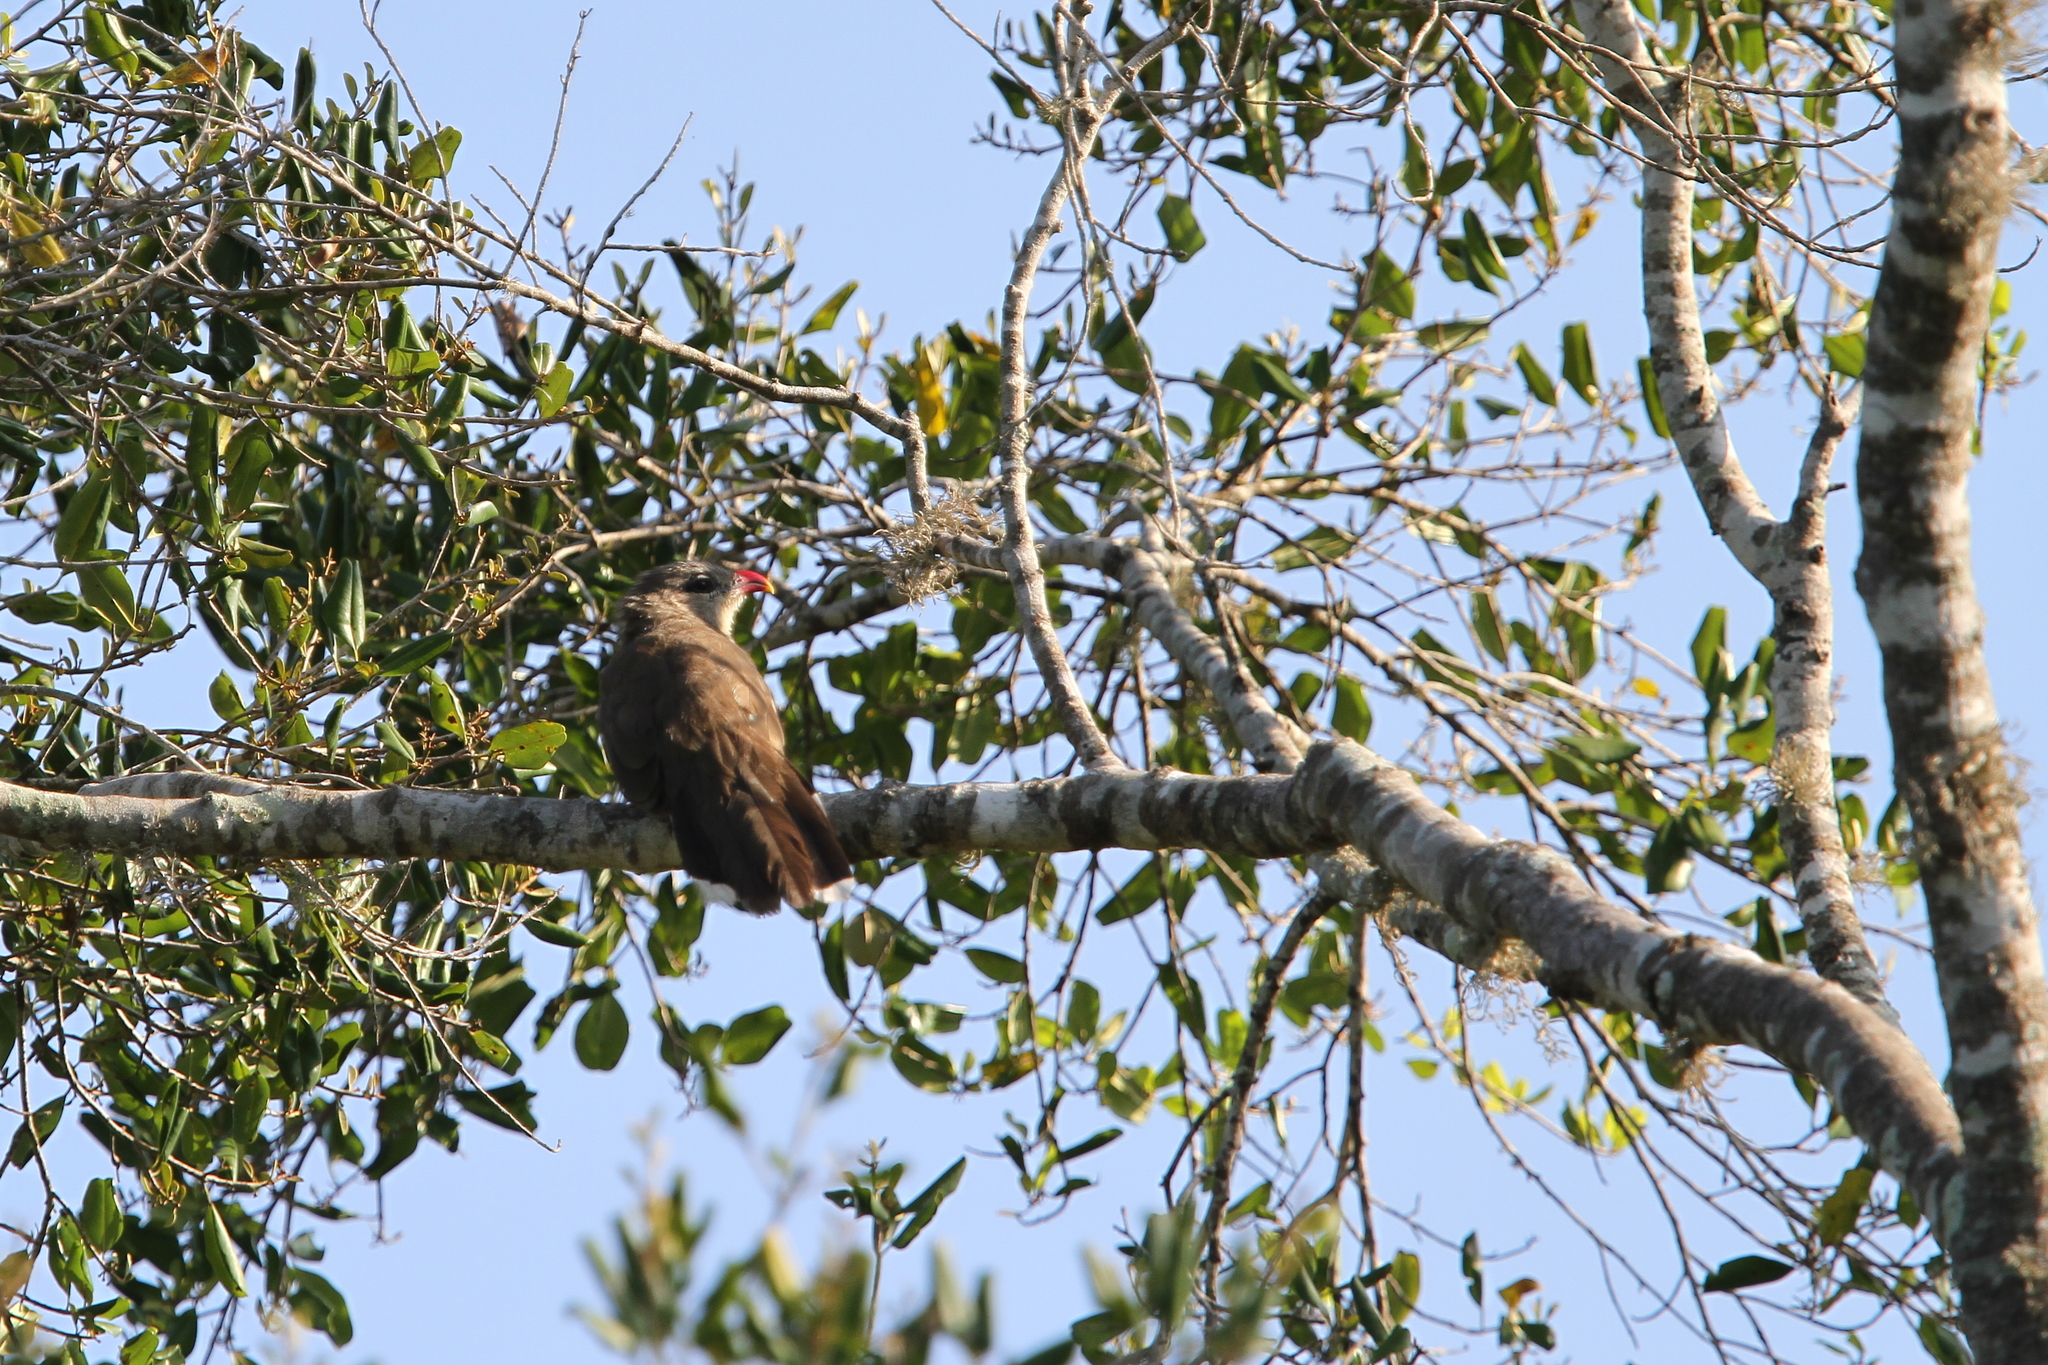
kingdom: Animalia
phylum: Chordata
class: Aves
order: Cuculiformes
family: Cuculidae
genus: Taccocua
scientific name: Taccocua leschenaultii
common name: Sirkeer malkoha
